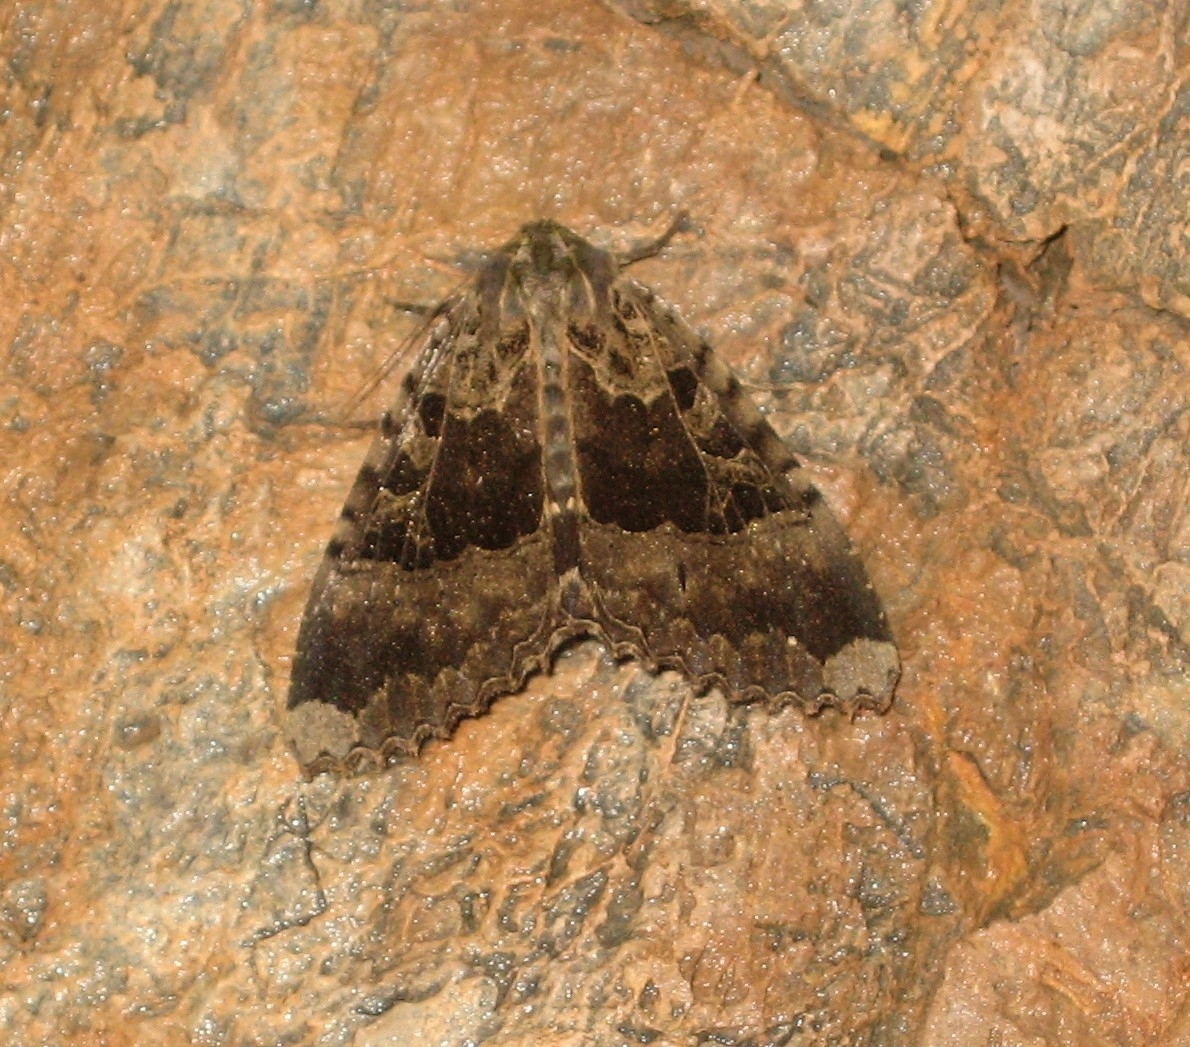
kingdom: Animalia
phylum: Arthropoda
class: Insecta
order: Lepidoptera
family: Noctuidae
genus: Mormo
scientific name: Mormo maura
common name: Old lady
